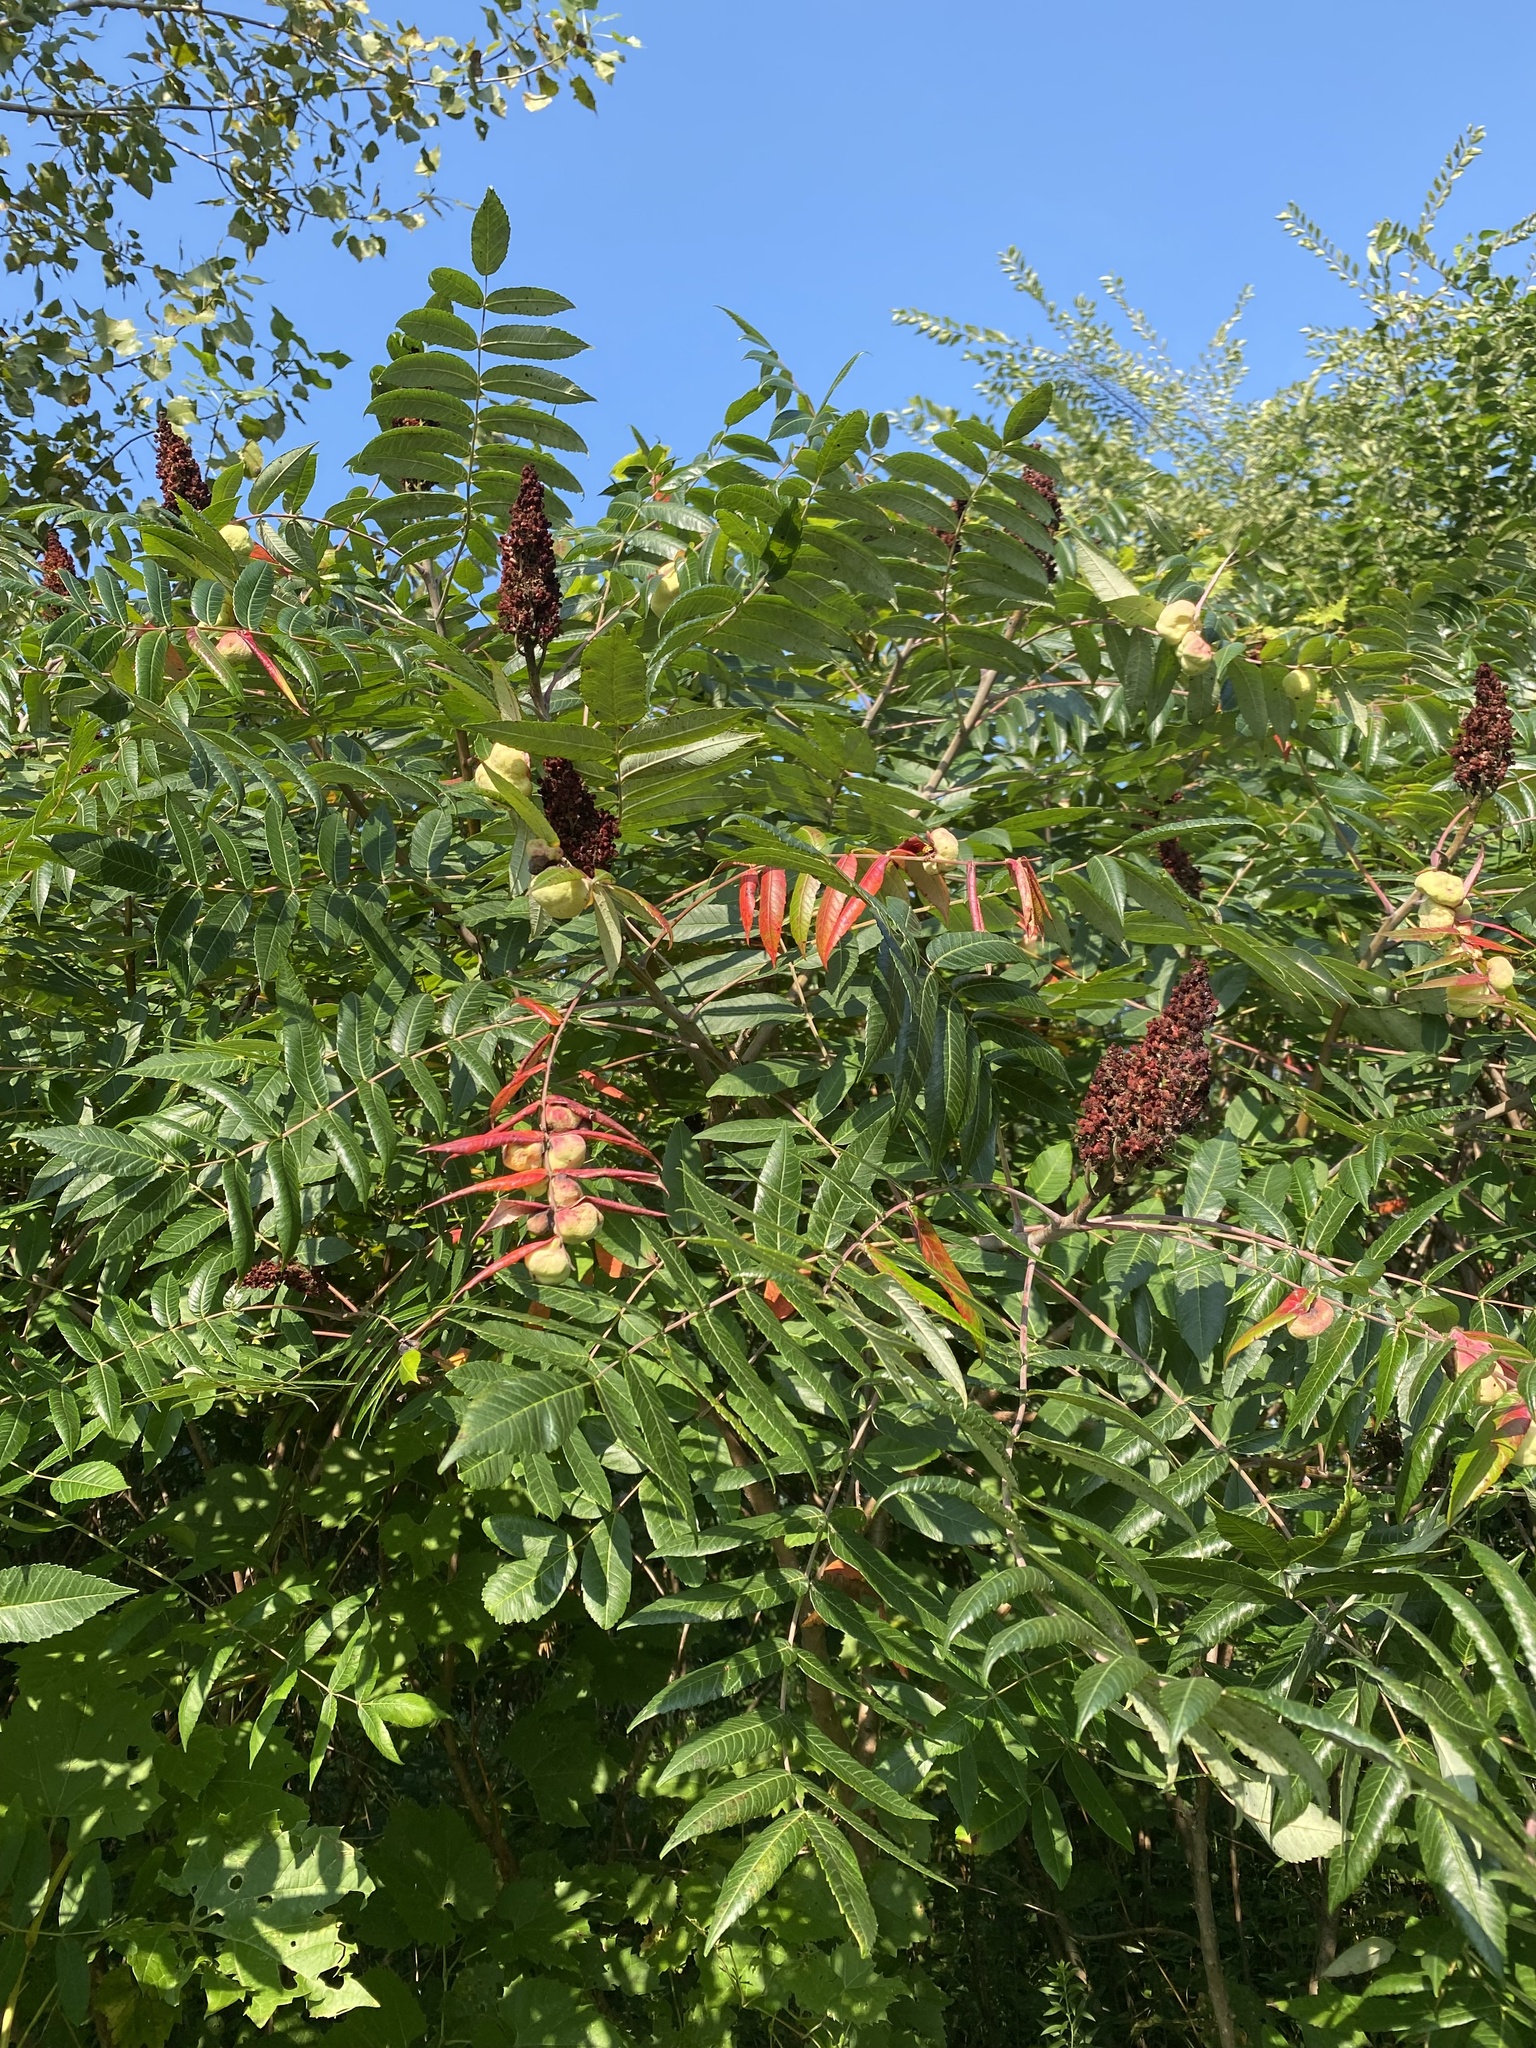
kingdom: Plantae
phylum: Tracheophyta
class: Magnoliopsida
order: Sapindales
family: Anacardiaceae
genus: Rhus
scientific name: Rhus glabra
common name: Scarlet sumac
